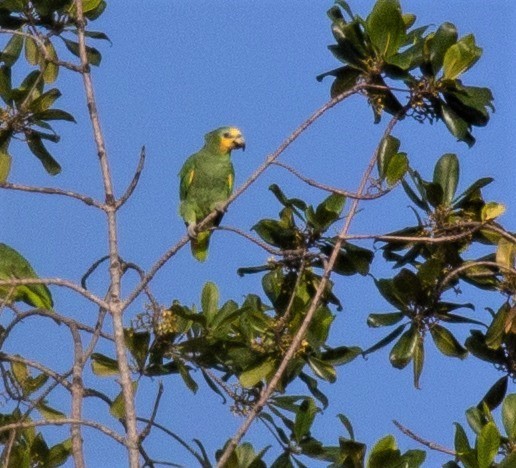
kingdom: Animalia
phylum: Chordata
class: Aves
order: Psittaciformes
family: Psittacidae
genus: Amazona
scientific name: Amazona amazonica
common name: Orange-winged amazon
